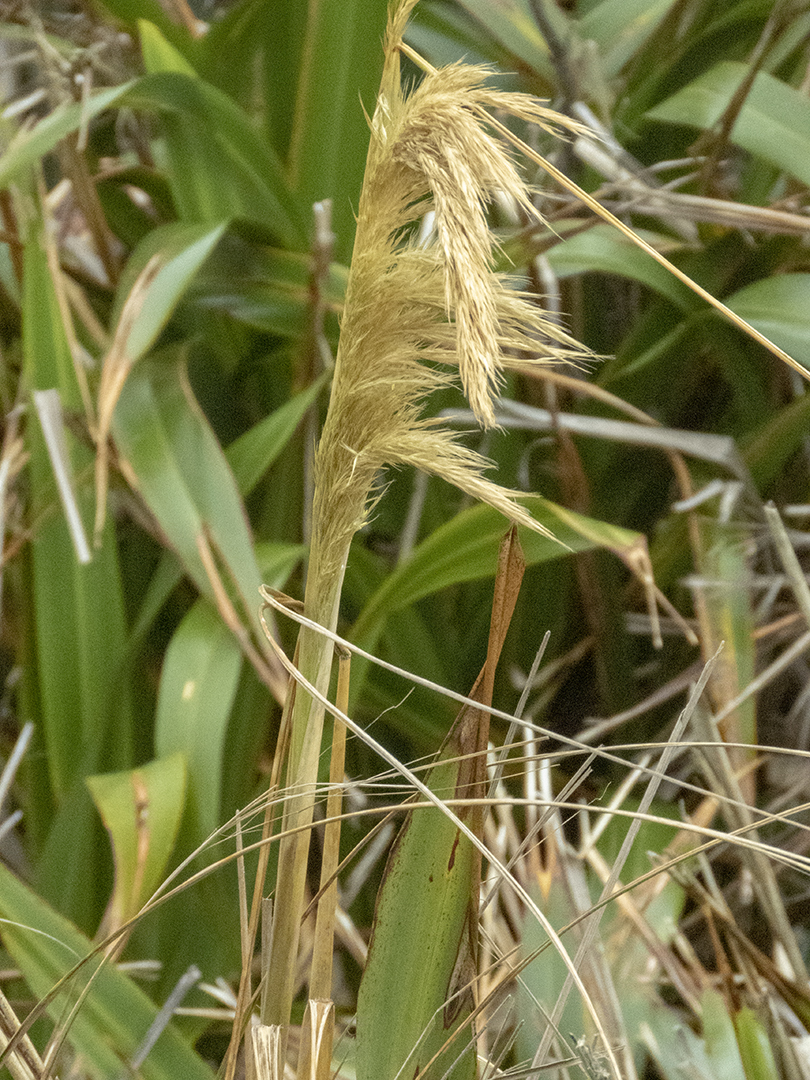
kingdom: Plantae
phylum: Tracheophyta
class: Liliopsida
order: Poales
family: Poaceae
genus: Austroderia
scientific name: Austroderia richardii
